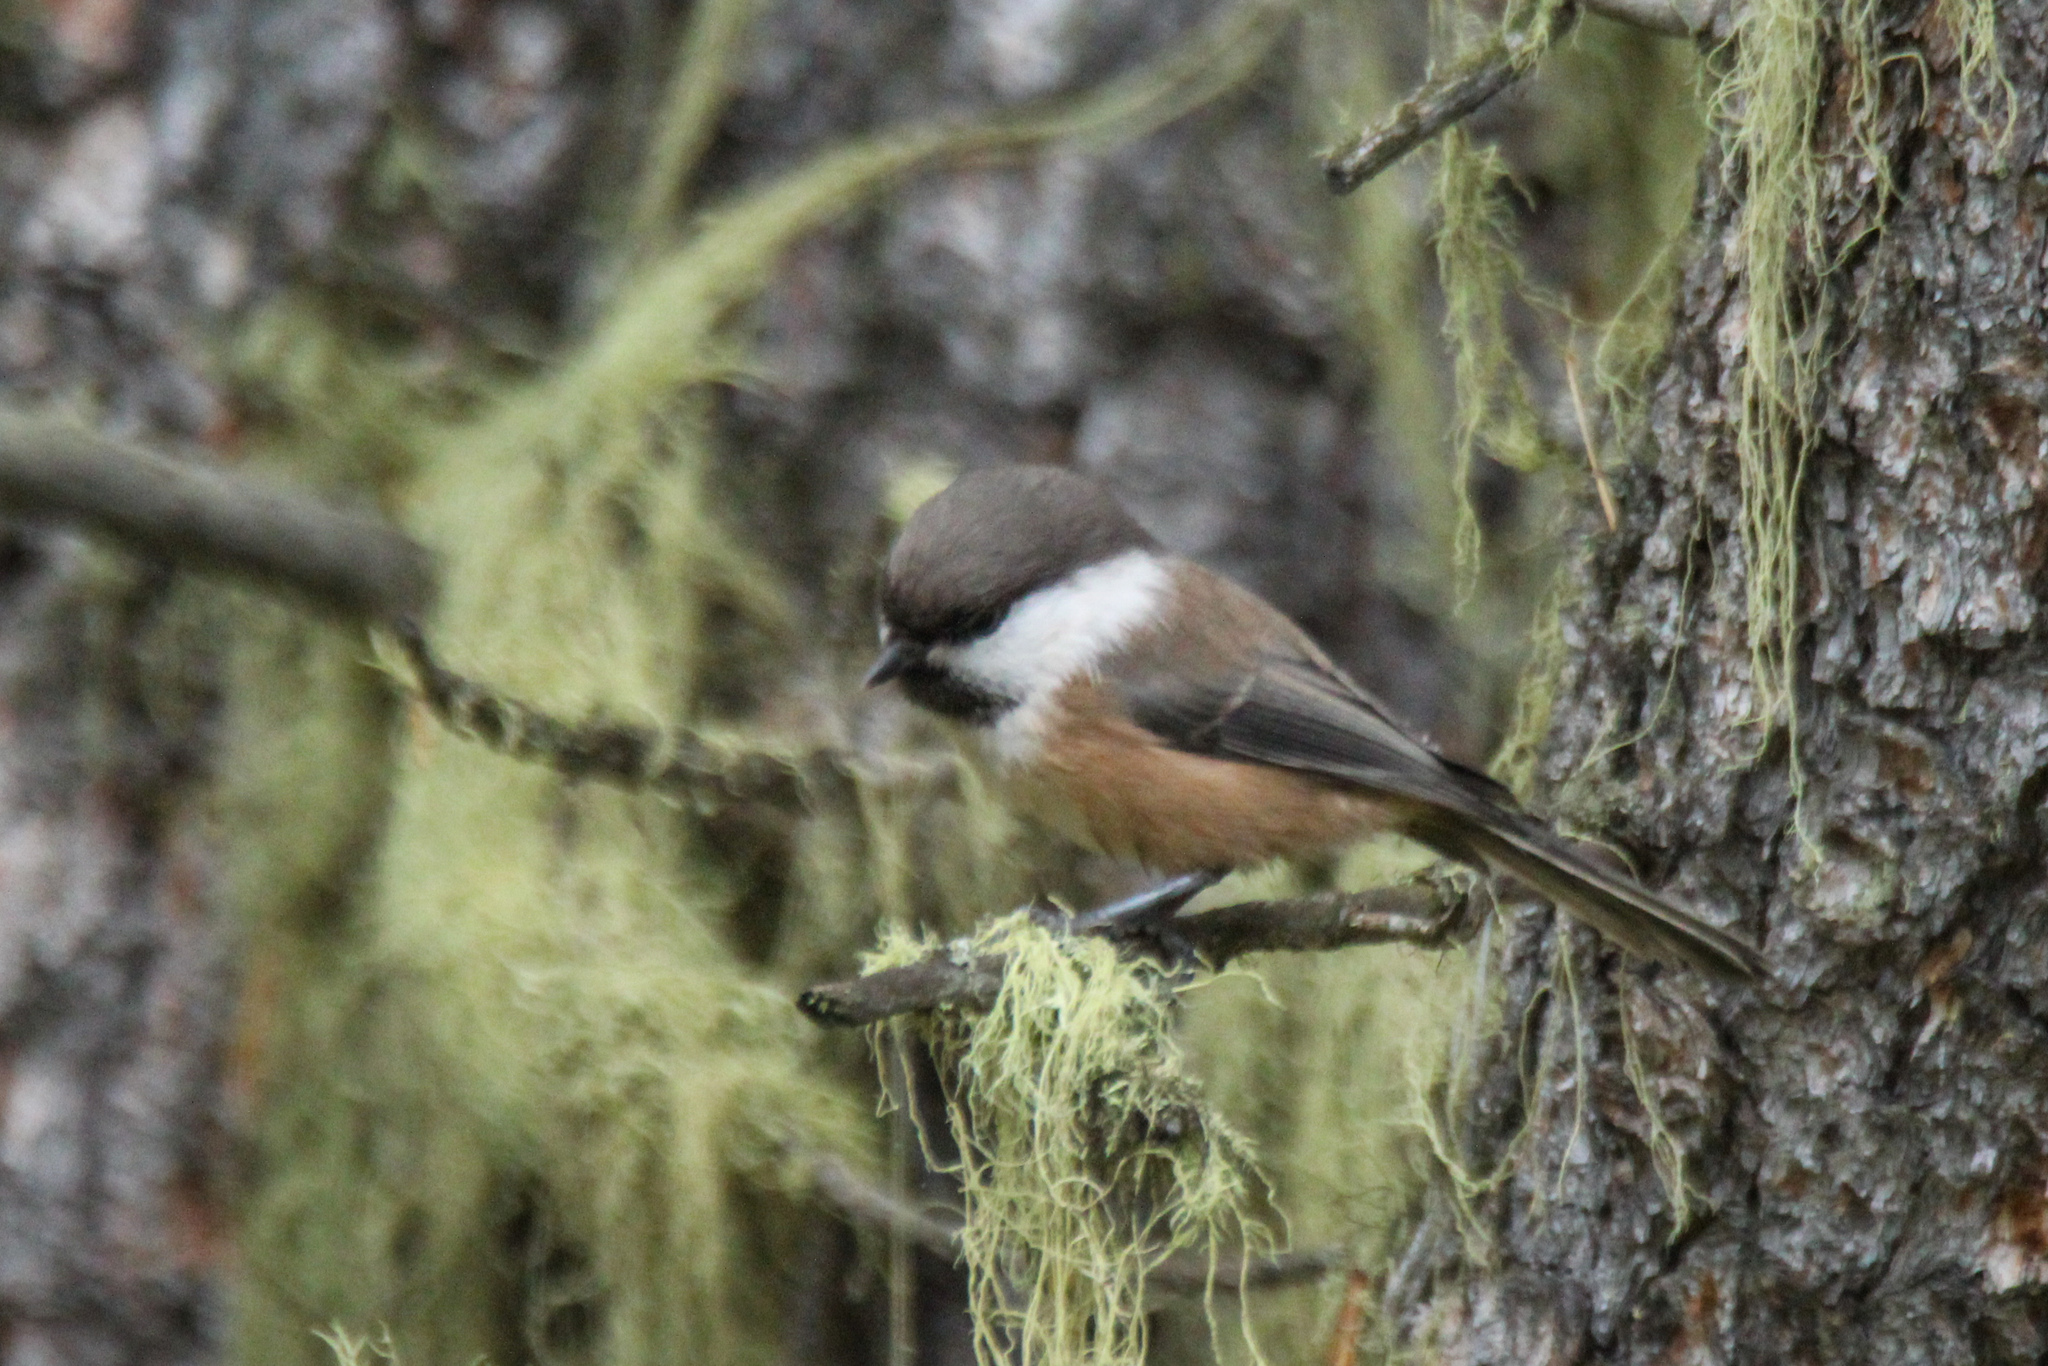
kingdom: Animalia
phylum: Chordata
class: Aves
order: Passeriformes
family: Paridae
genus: Poecile
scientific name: Poecile cinctus
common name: Gray-headed chickadee
